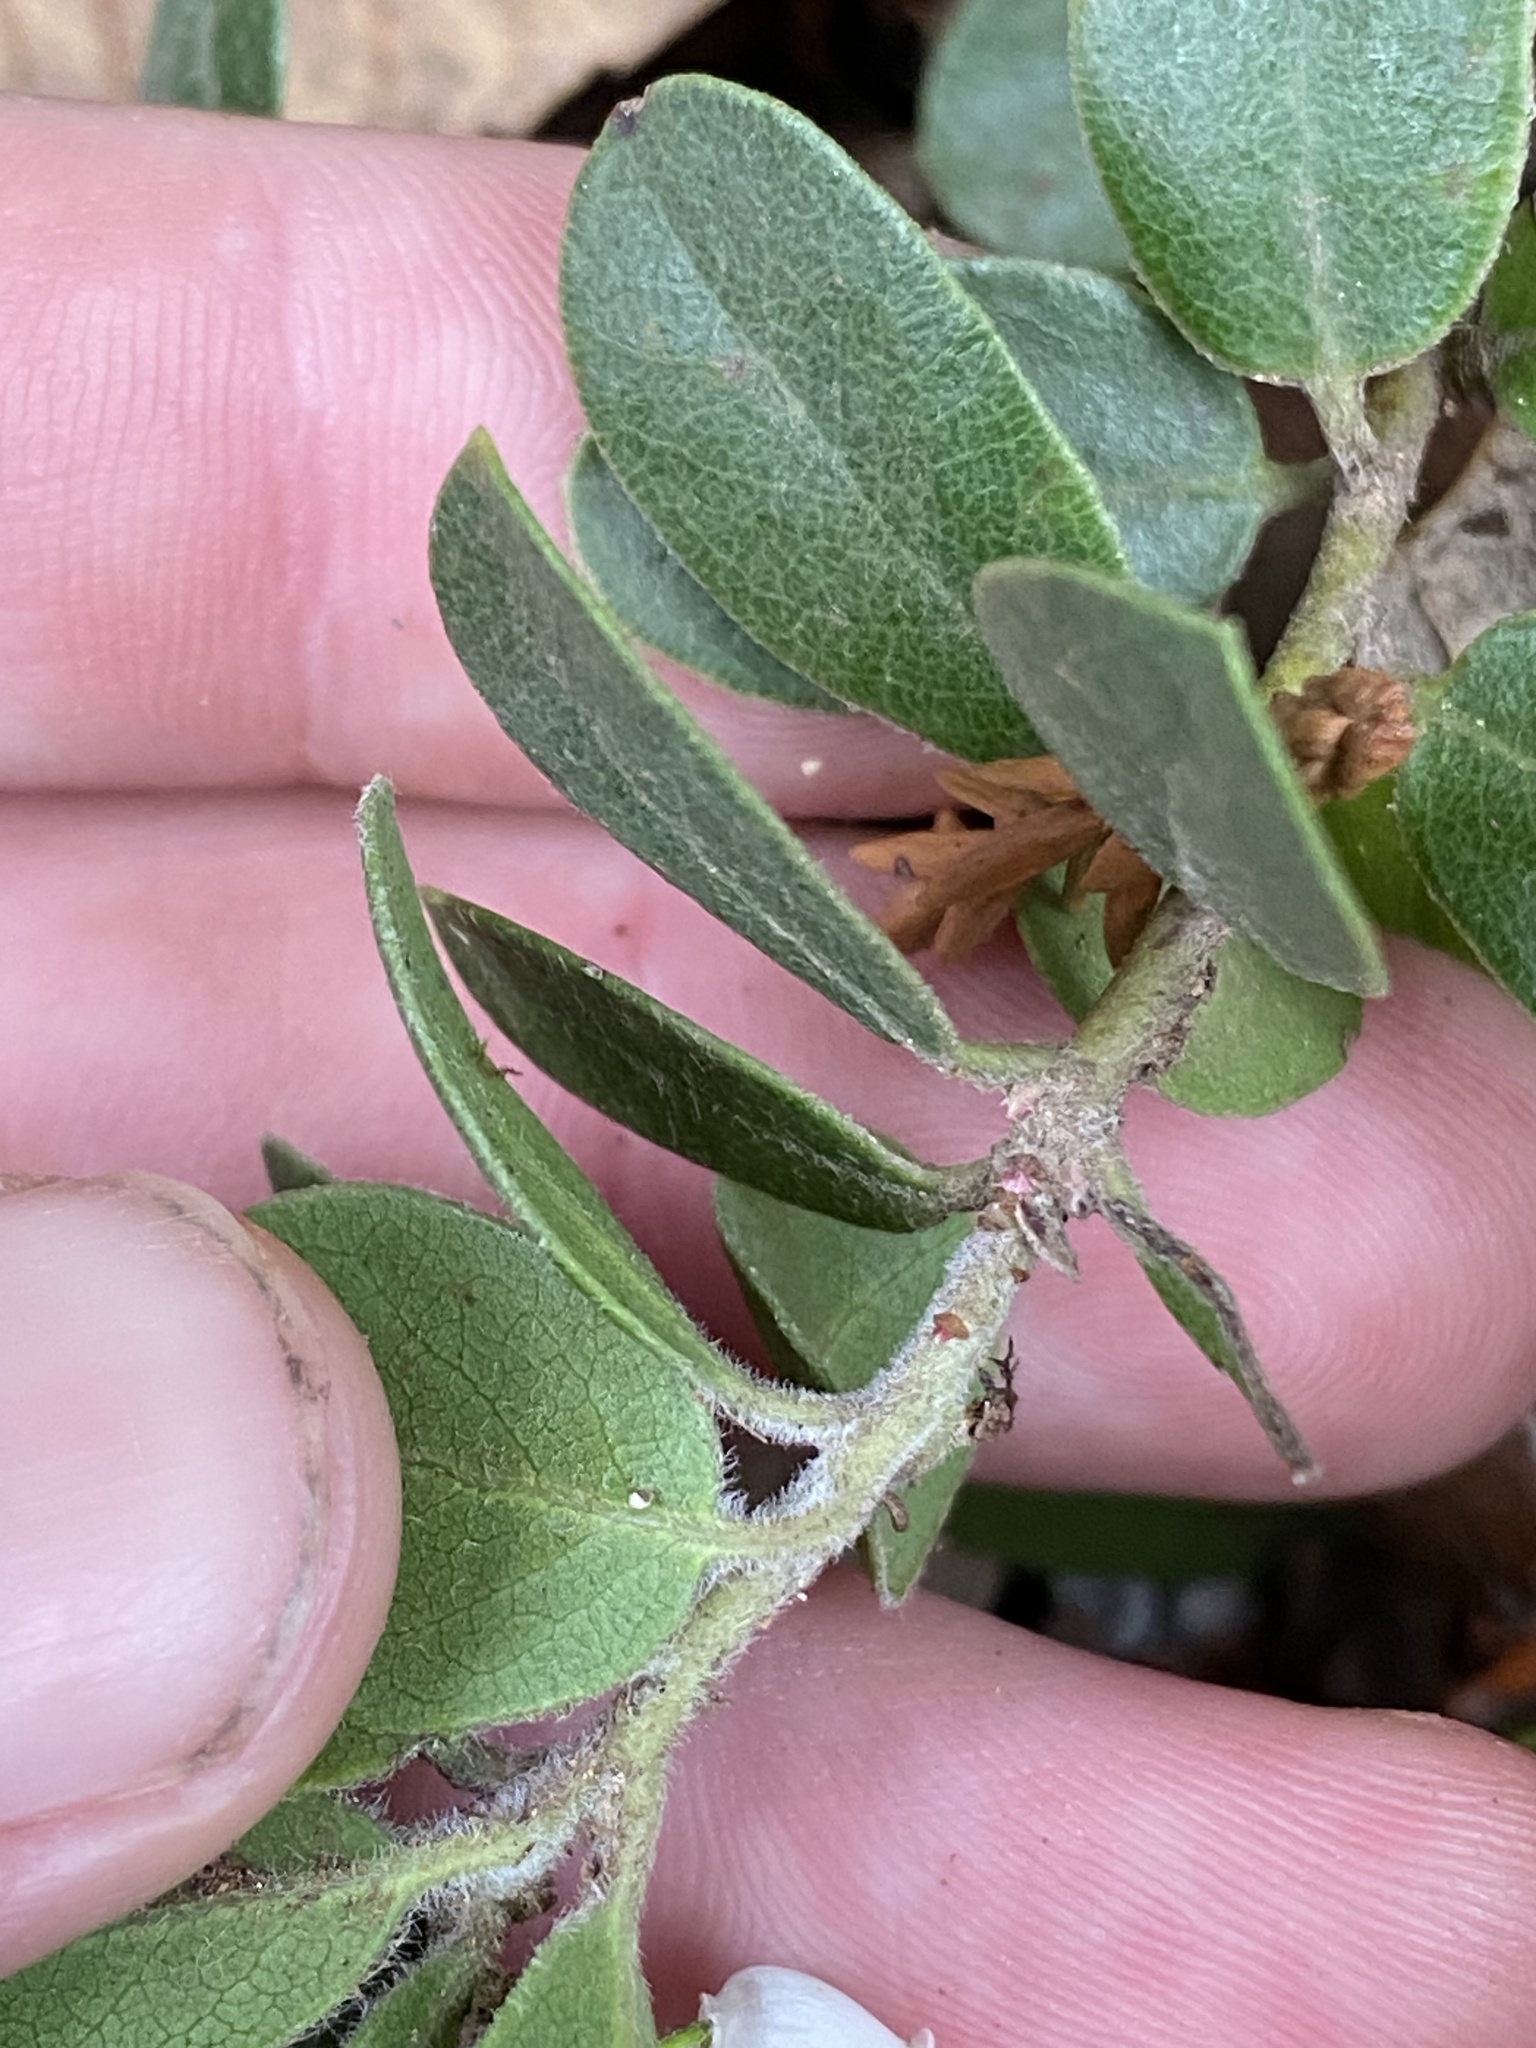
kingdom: Plantae
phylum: Tracheophyta
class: Magnoliopsida
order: Ericales
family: Ericaceae
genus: Arctostaphylos
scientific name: Arctostaphylos uva-ursi
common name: Bearberry
